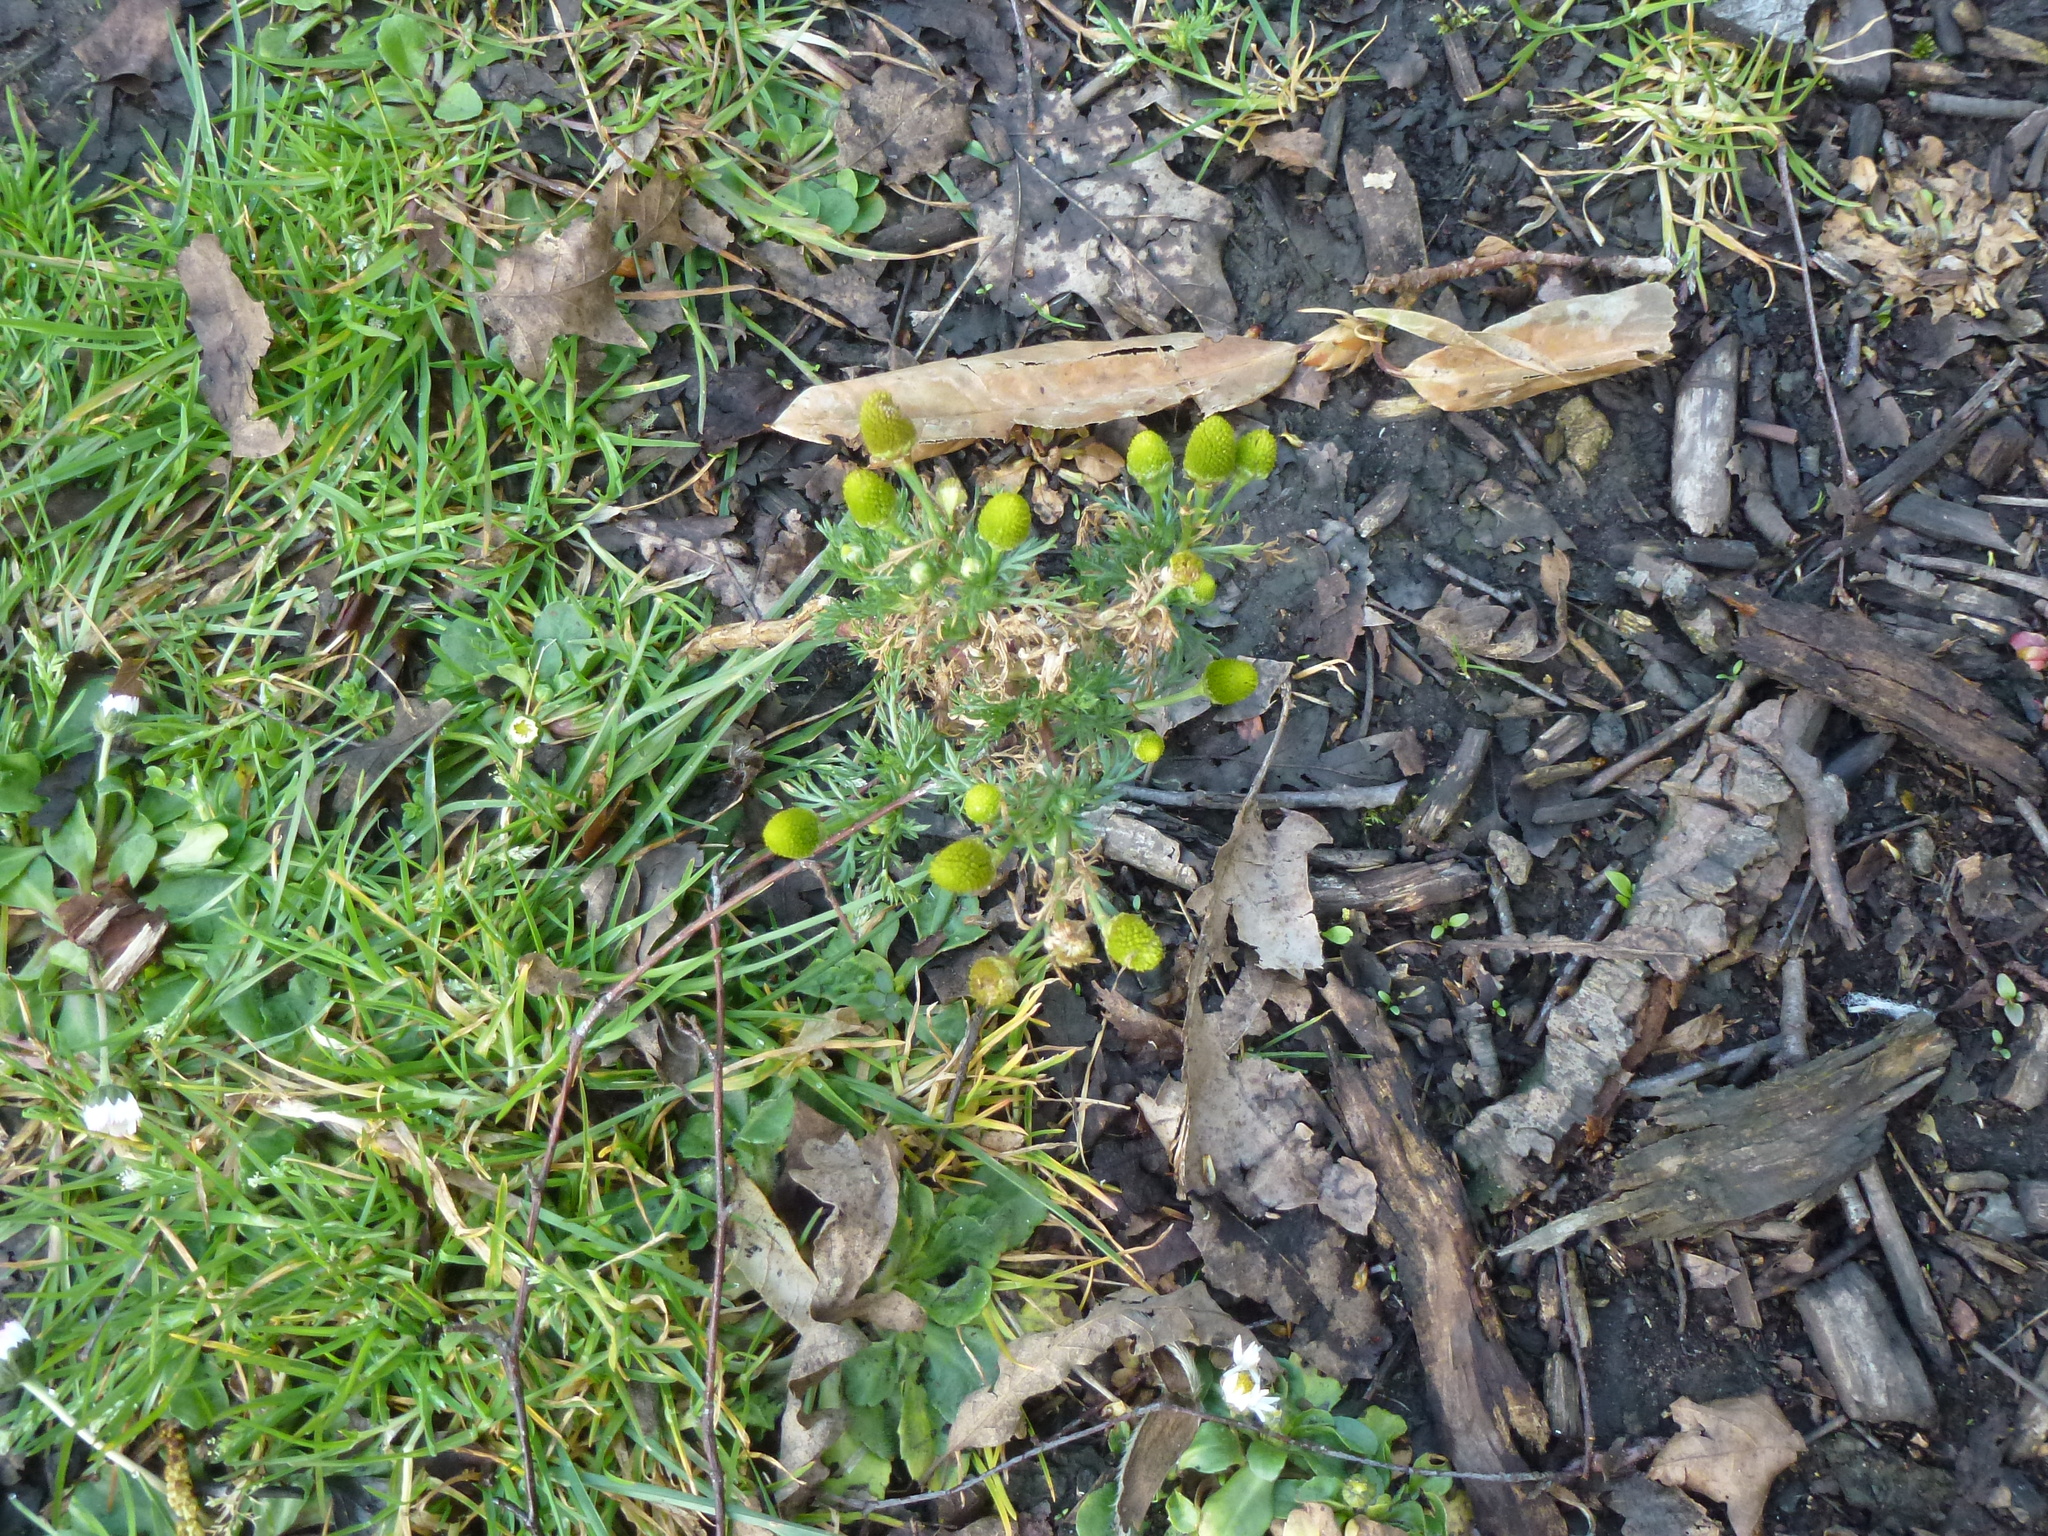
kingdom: Plantae
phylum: Tracheophyta
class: Magnoliopsida
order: Asterales
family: Asteraceae
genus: Matricaria
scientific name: Matricaria discoidea
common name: Disc mayweed
